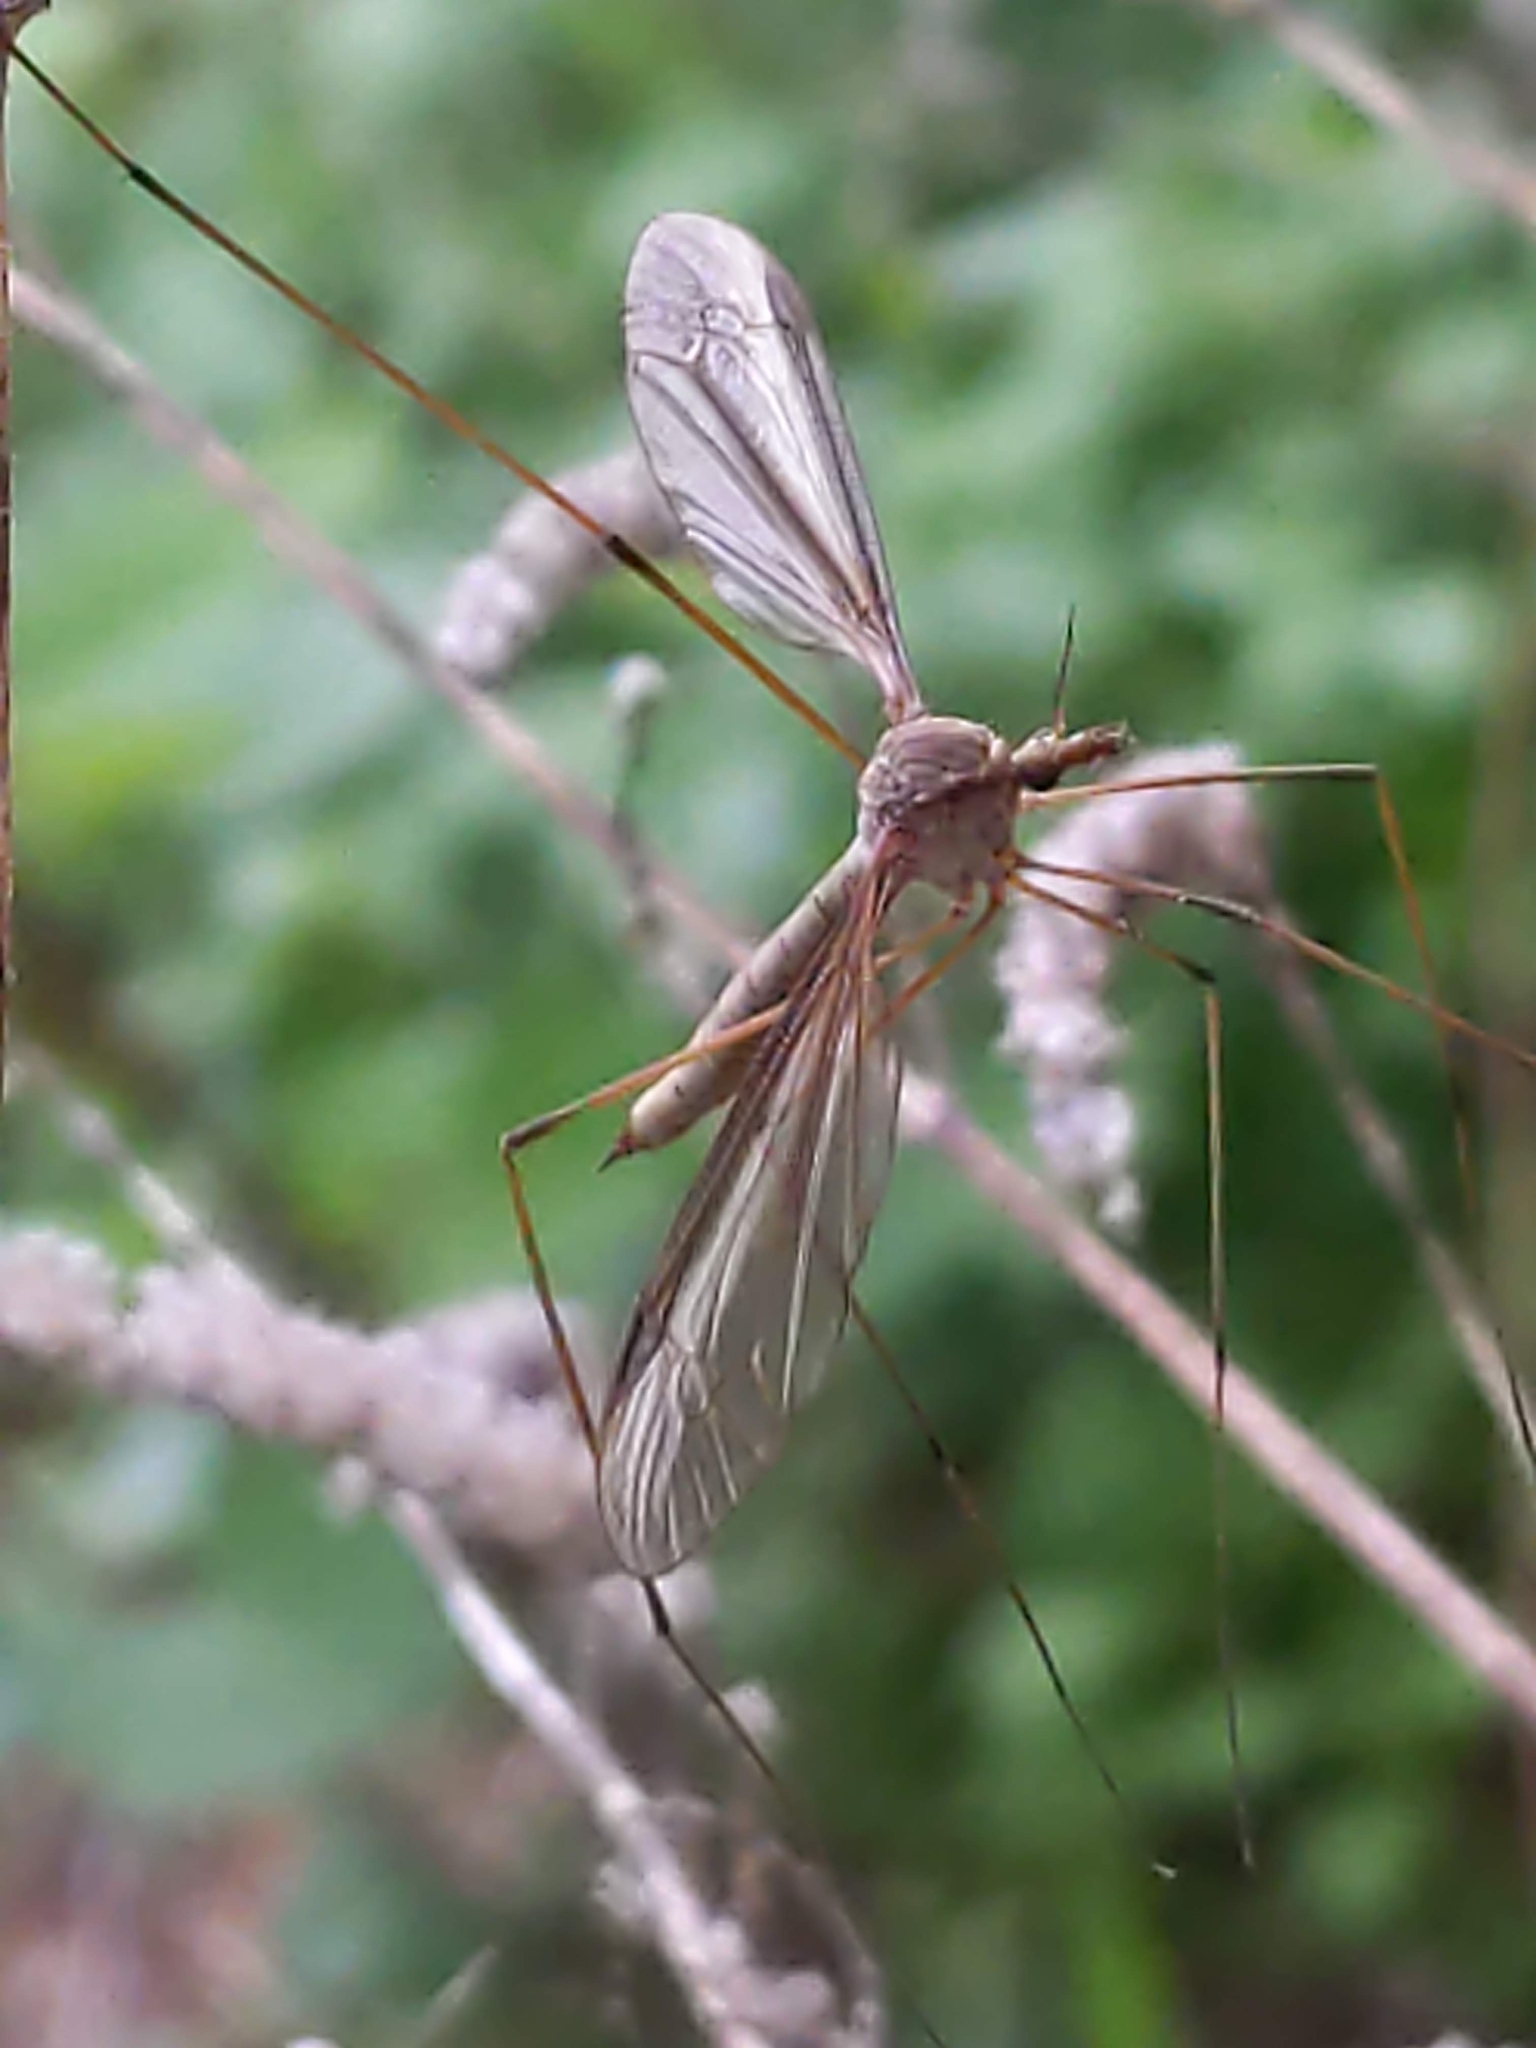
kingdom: Animalia
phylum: Arthropoda
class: Insecta
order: Diptera
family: Tipulidae
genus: Tipula
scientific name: Tipula
